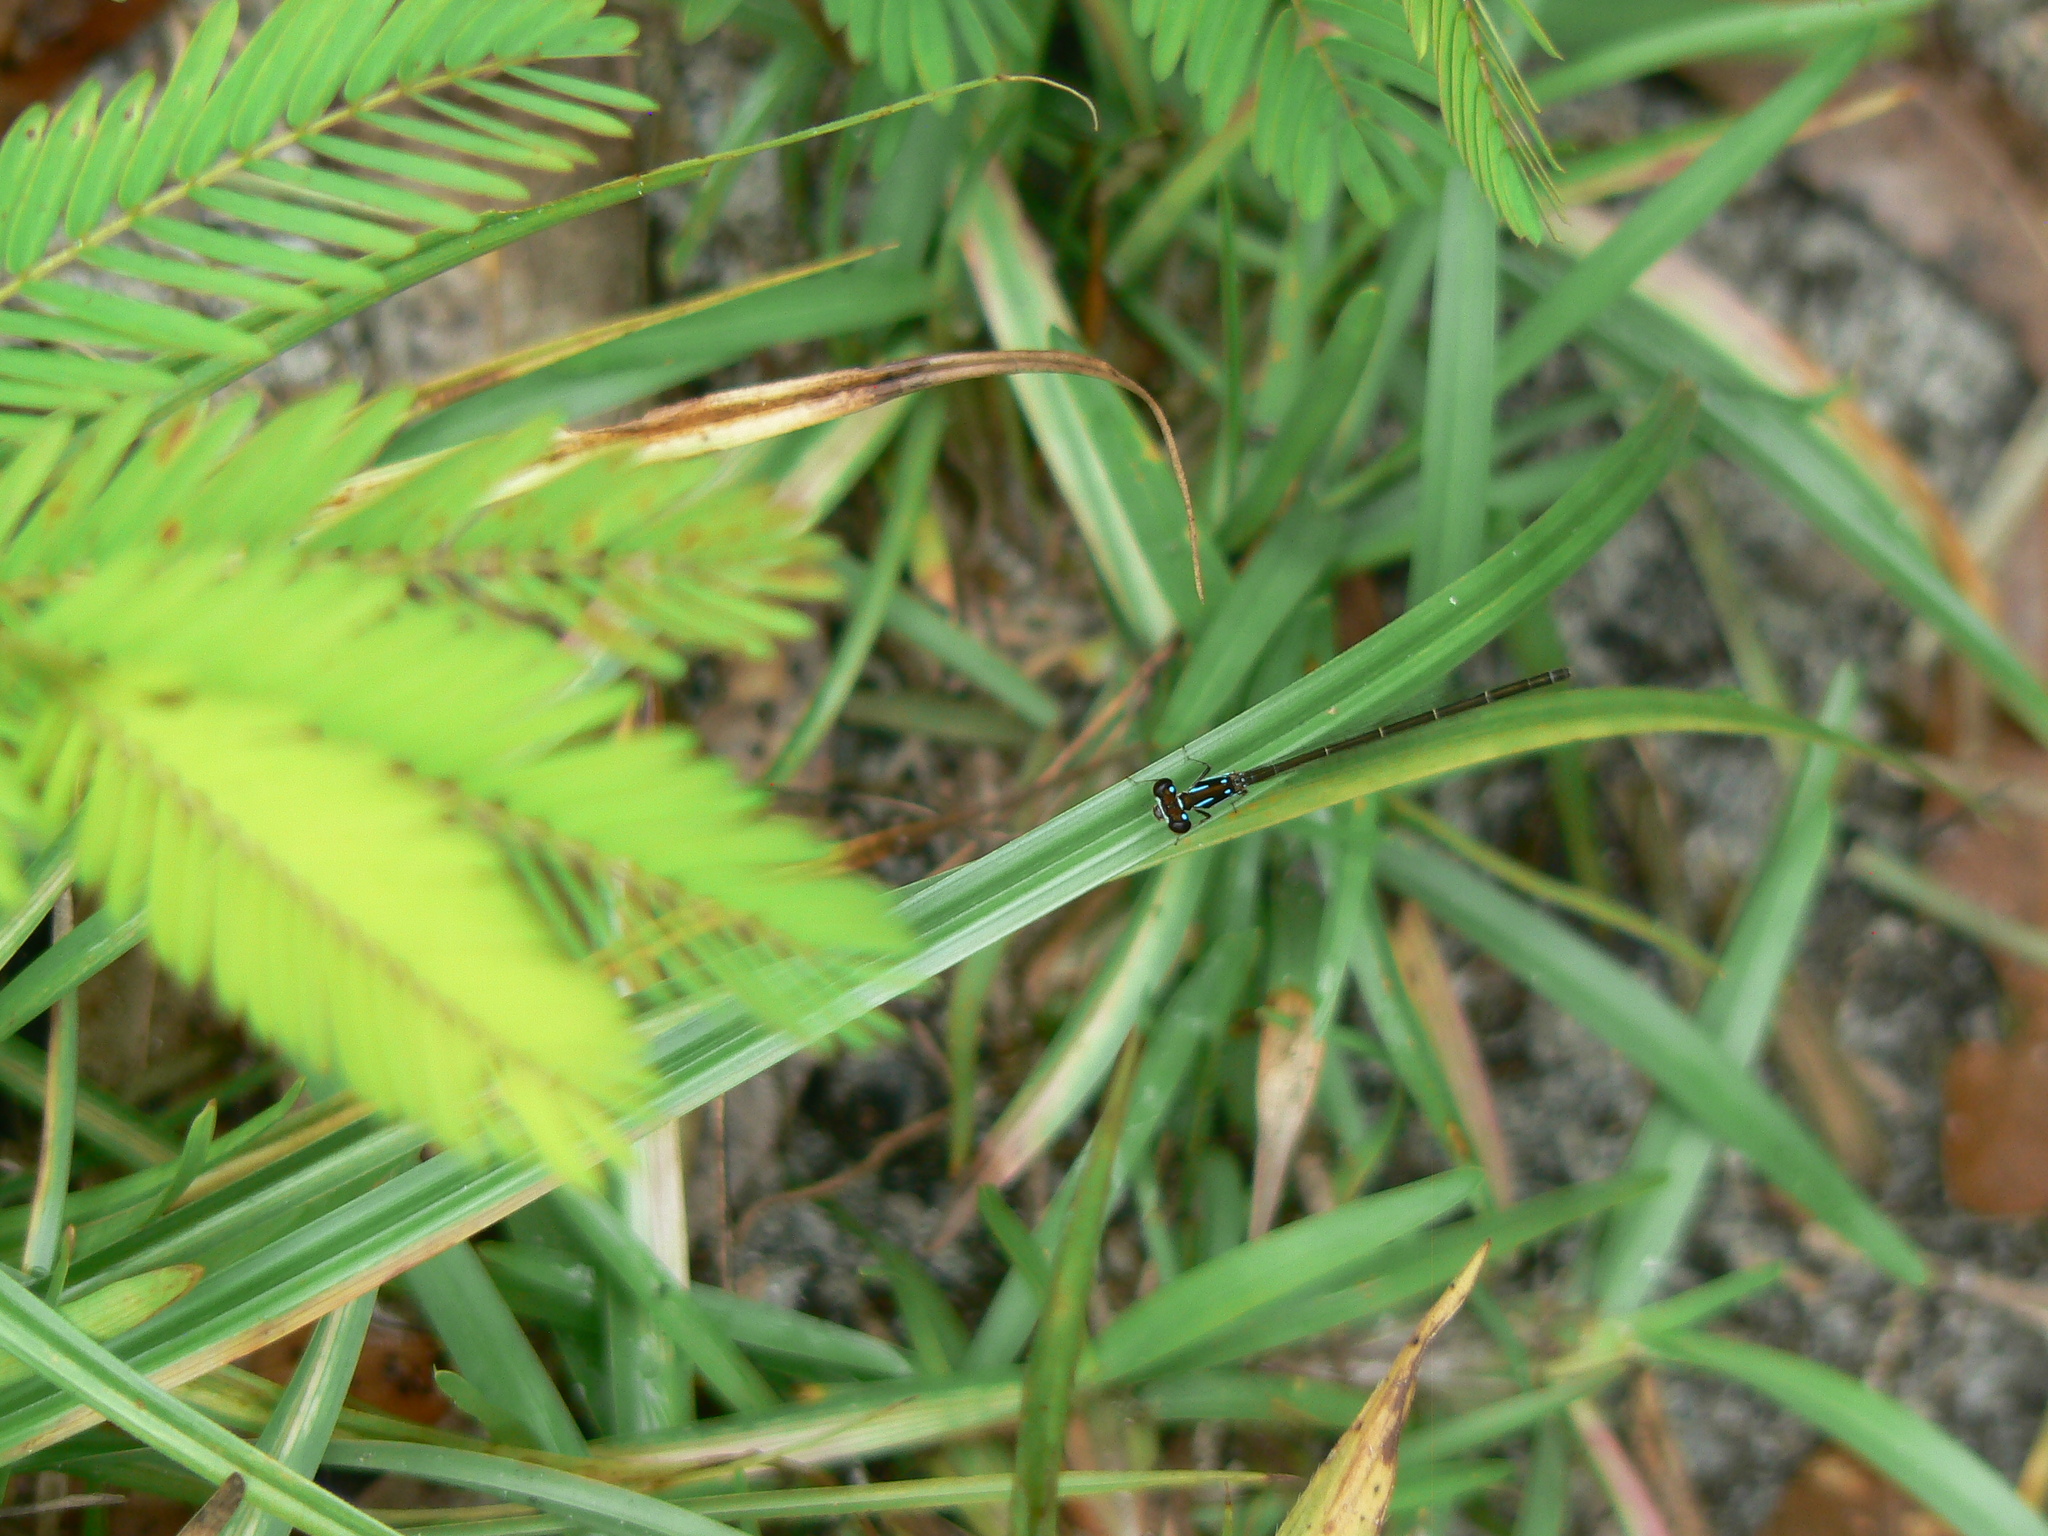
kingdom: Animalia
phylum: Arthropoda
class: Insecta
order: Odonata
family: Coenagrionidae
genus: Ischnura
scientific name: Ischnura posita
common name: Fragile forktail
